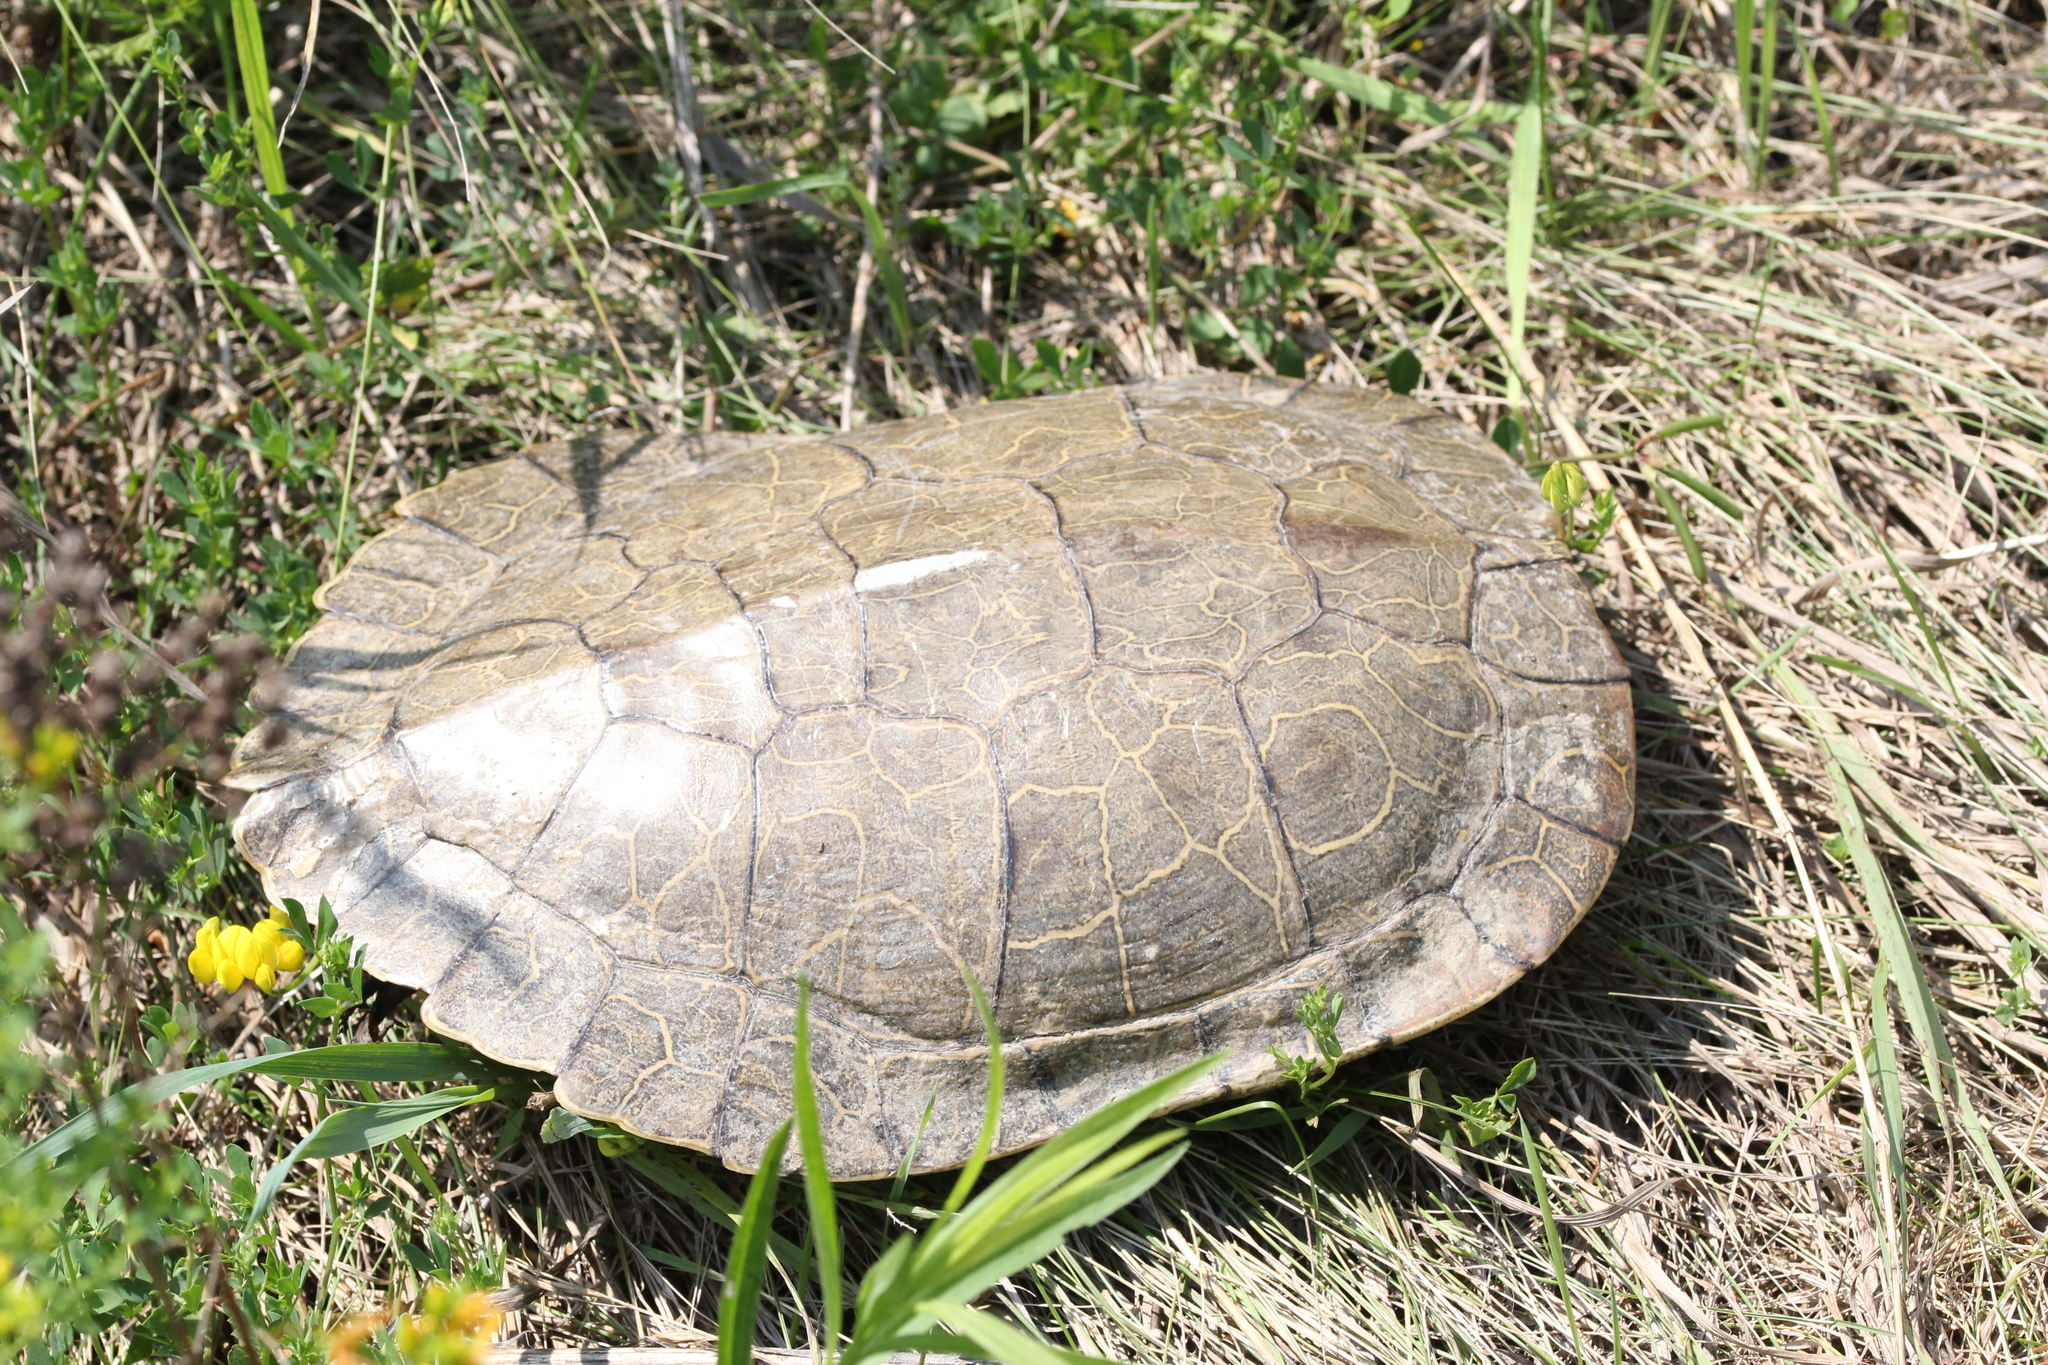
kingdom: Animalia
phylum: Chordata
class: Testudines
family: Emydidae
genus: Graptemys
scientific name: Graptemys geographica
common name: Common map turtle
